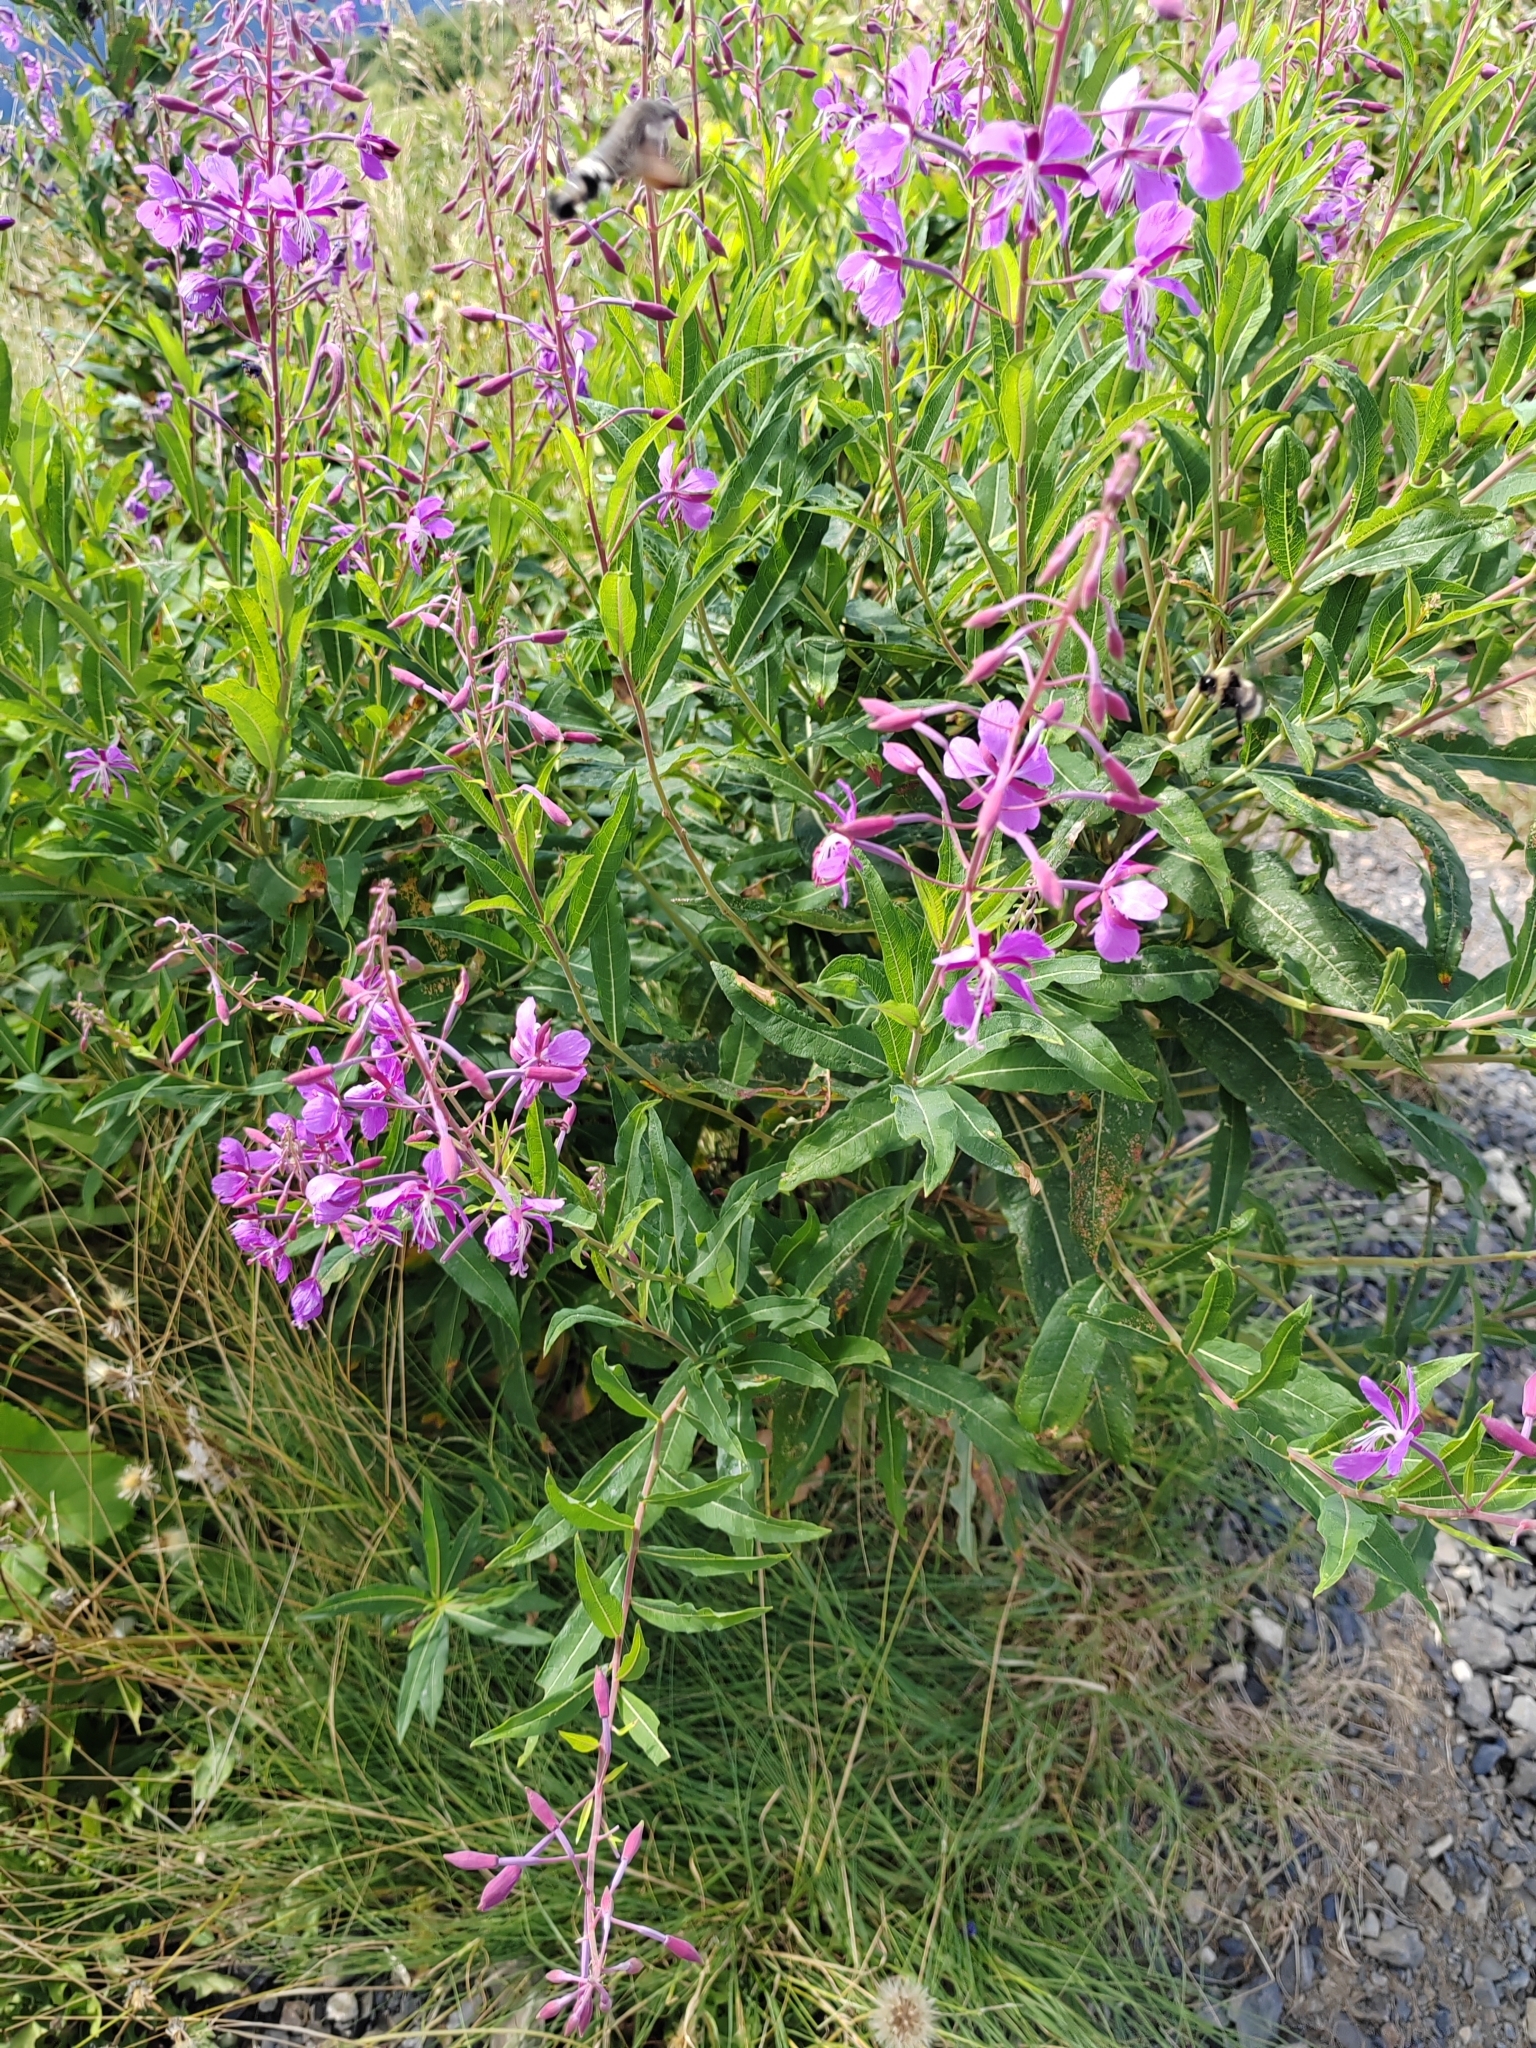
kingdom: Plantae
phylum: Tracheophyta
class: Magnoliopsida
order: Myrtales
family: Onagraceae
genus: Chamaenerion
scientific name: Chamaenerion angustifolium
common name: Fireweed
